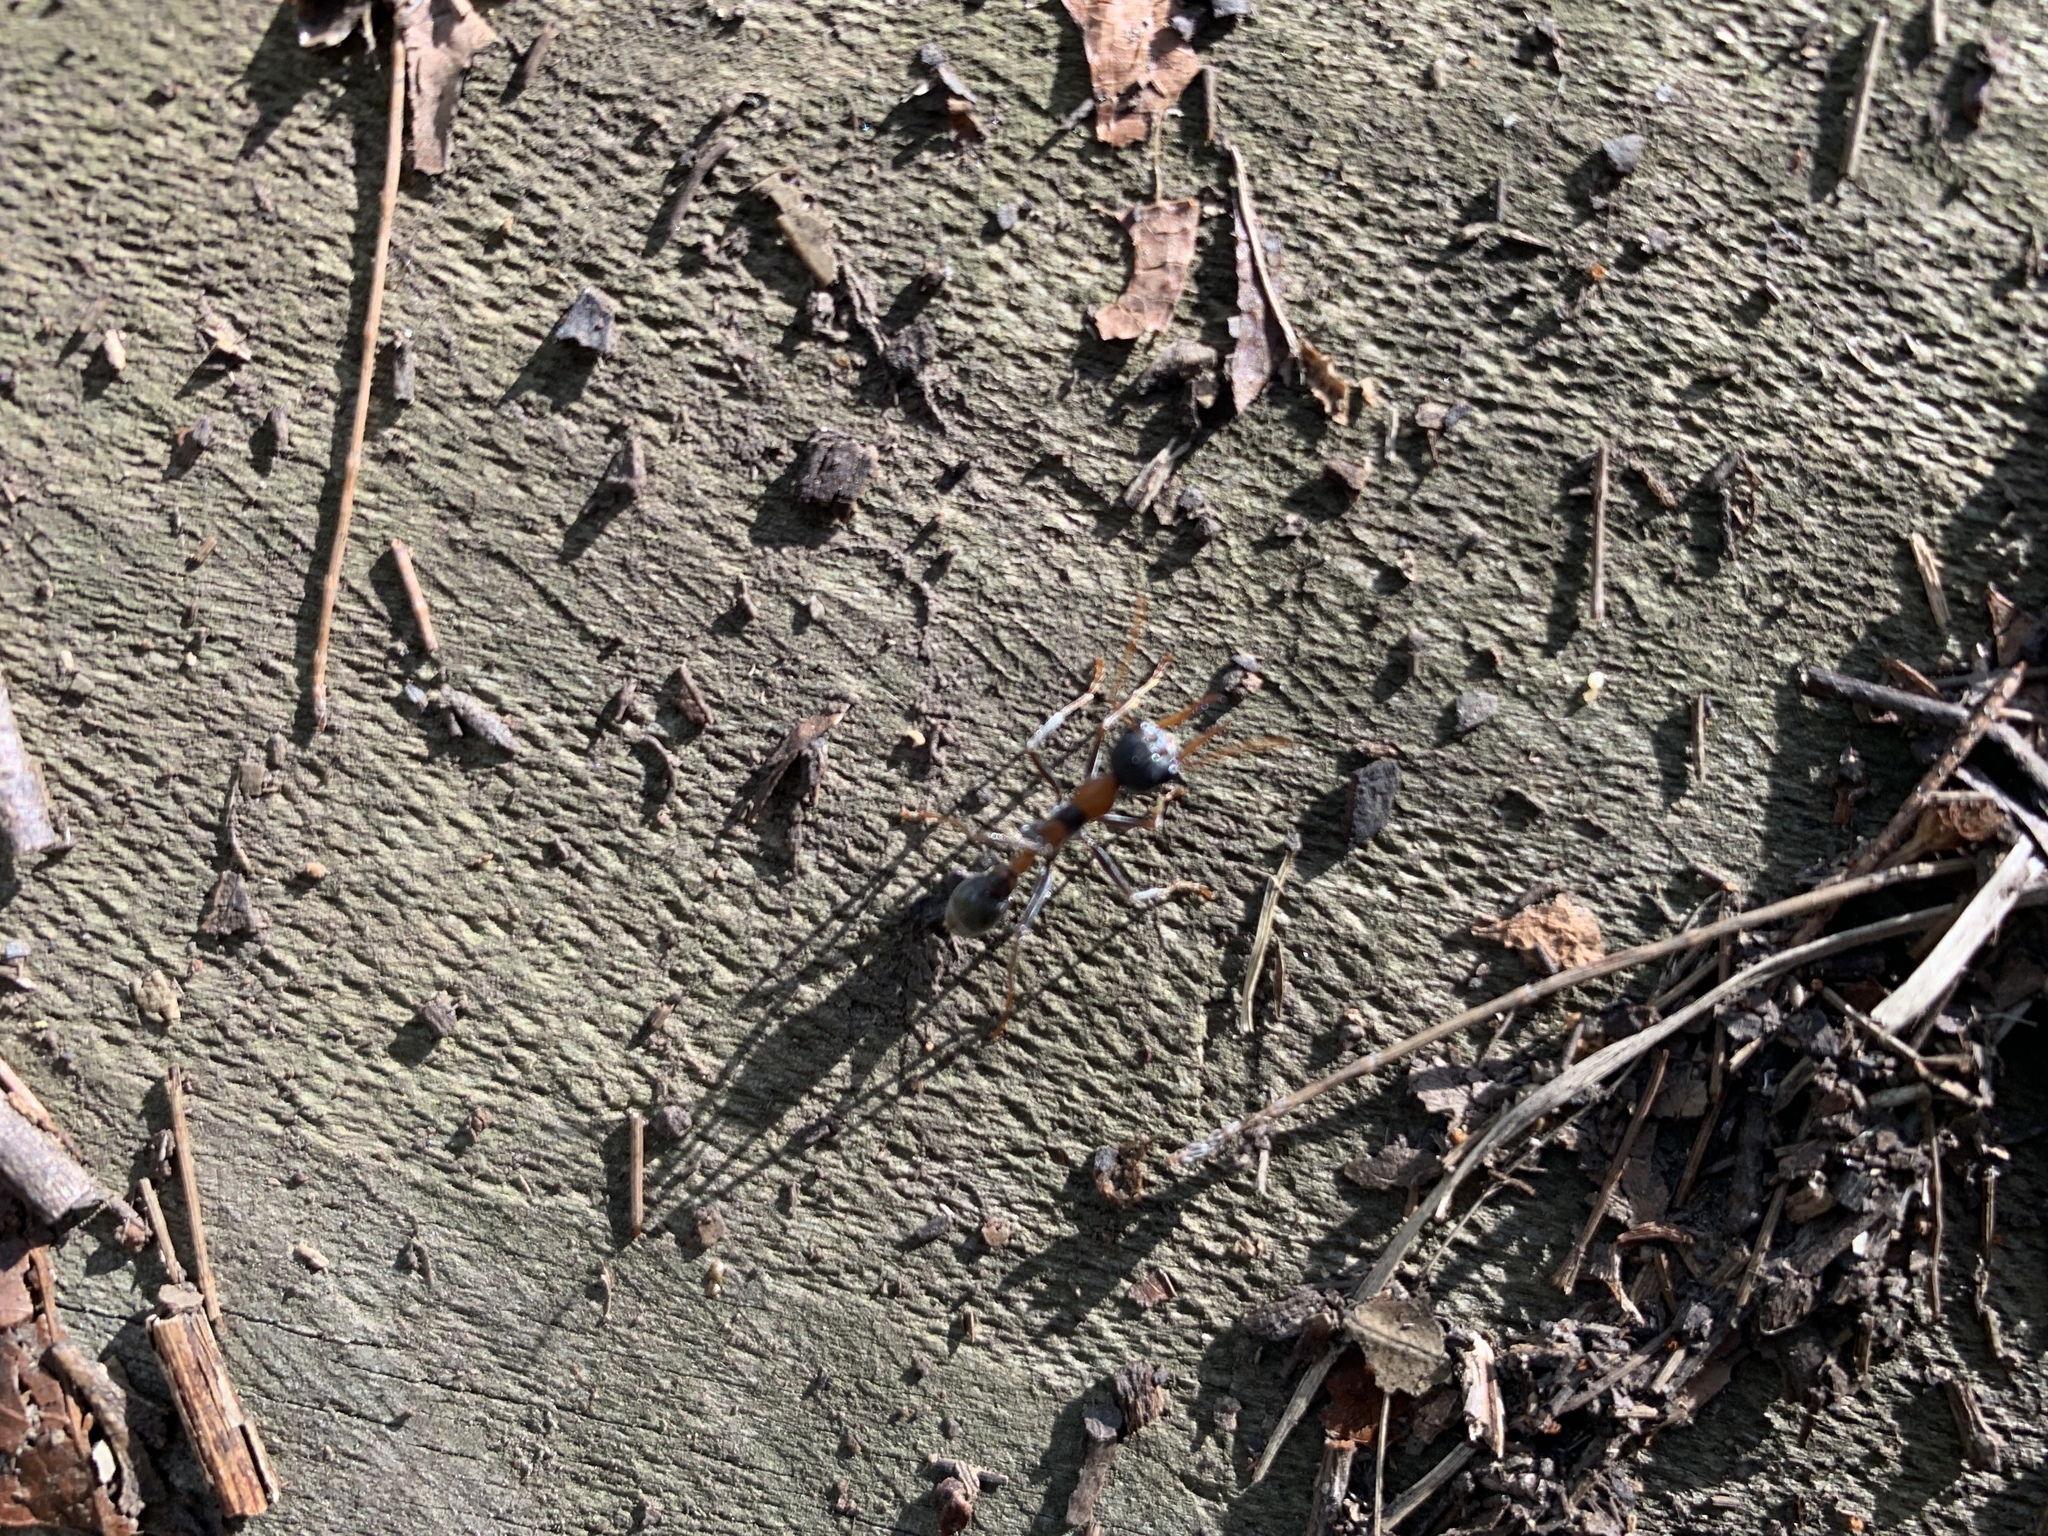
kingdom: Animalia
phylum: Arthropoda
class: Insecta
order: Hymenoptera
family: Formicidae
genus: Myrmecia
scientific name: Myrmecia nigrocincta
